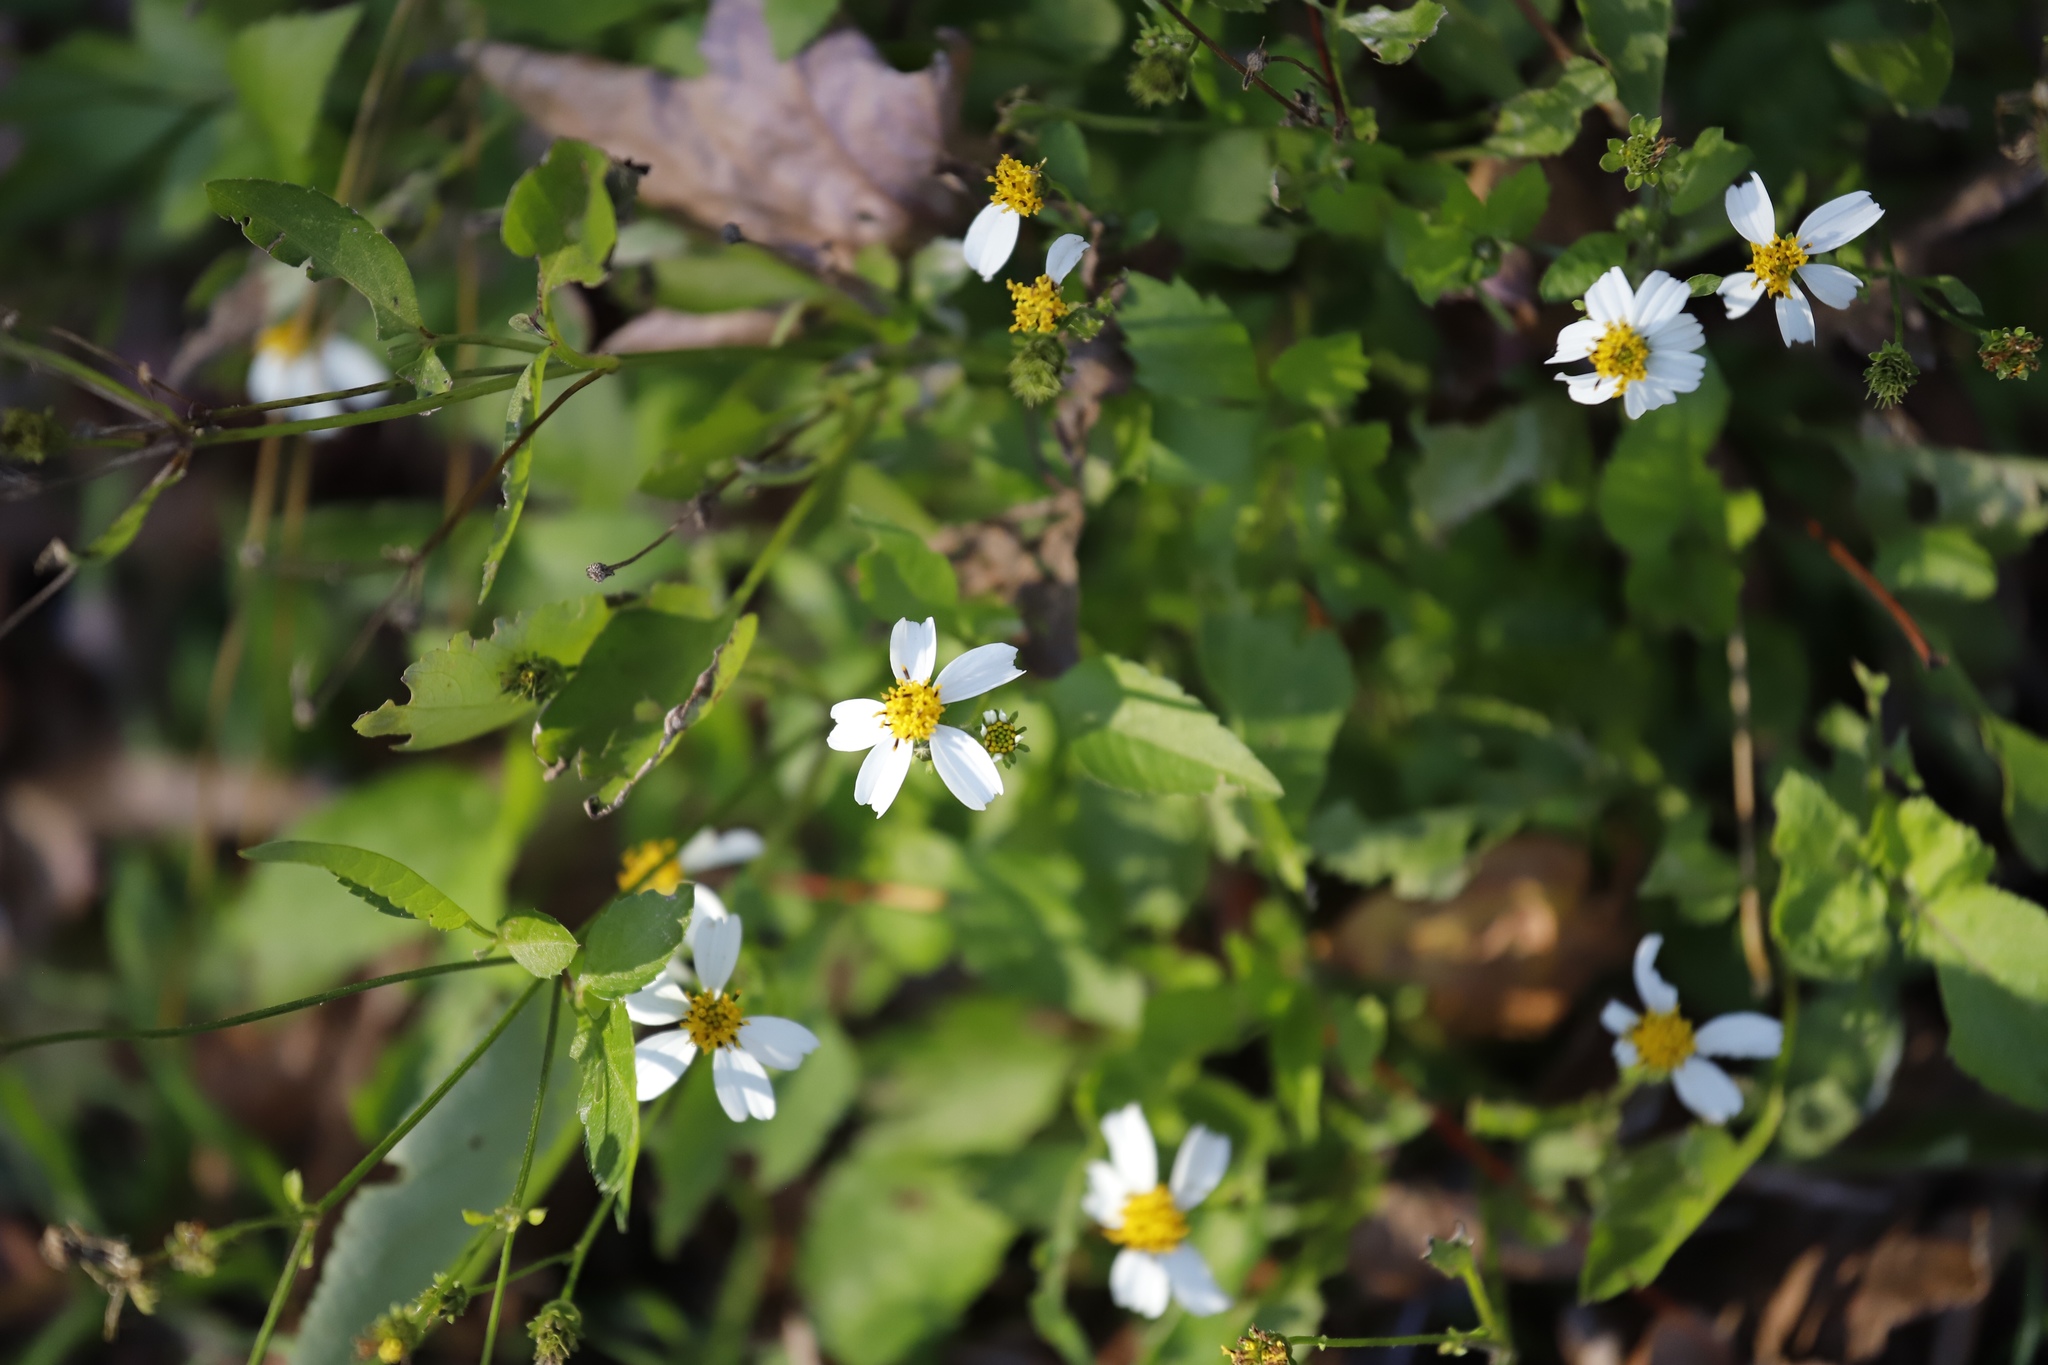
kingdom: Plantae
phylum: Tracheophyta
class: Magnoliopsida
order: Asterales
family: Asteraceae
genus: Bidens
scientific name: Bidens alba
